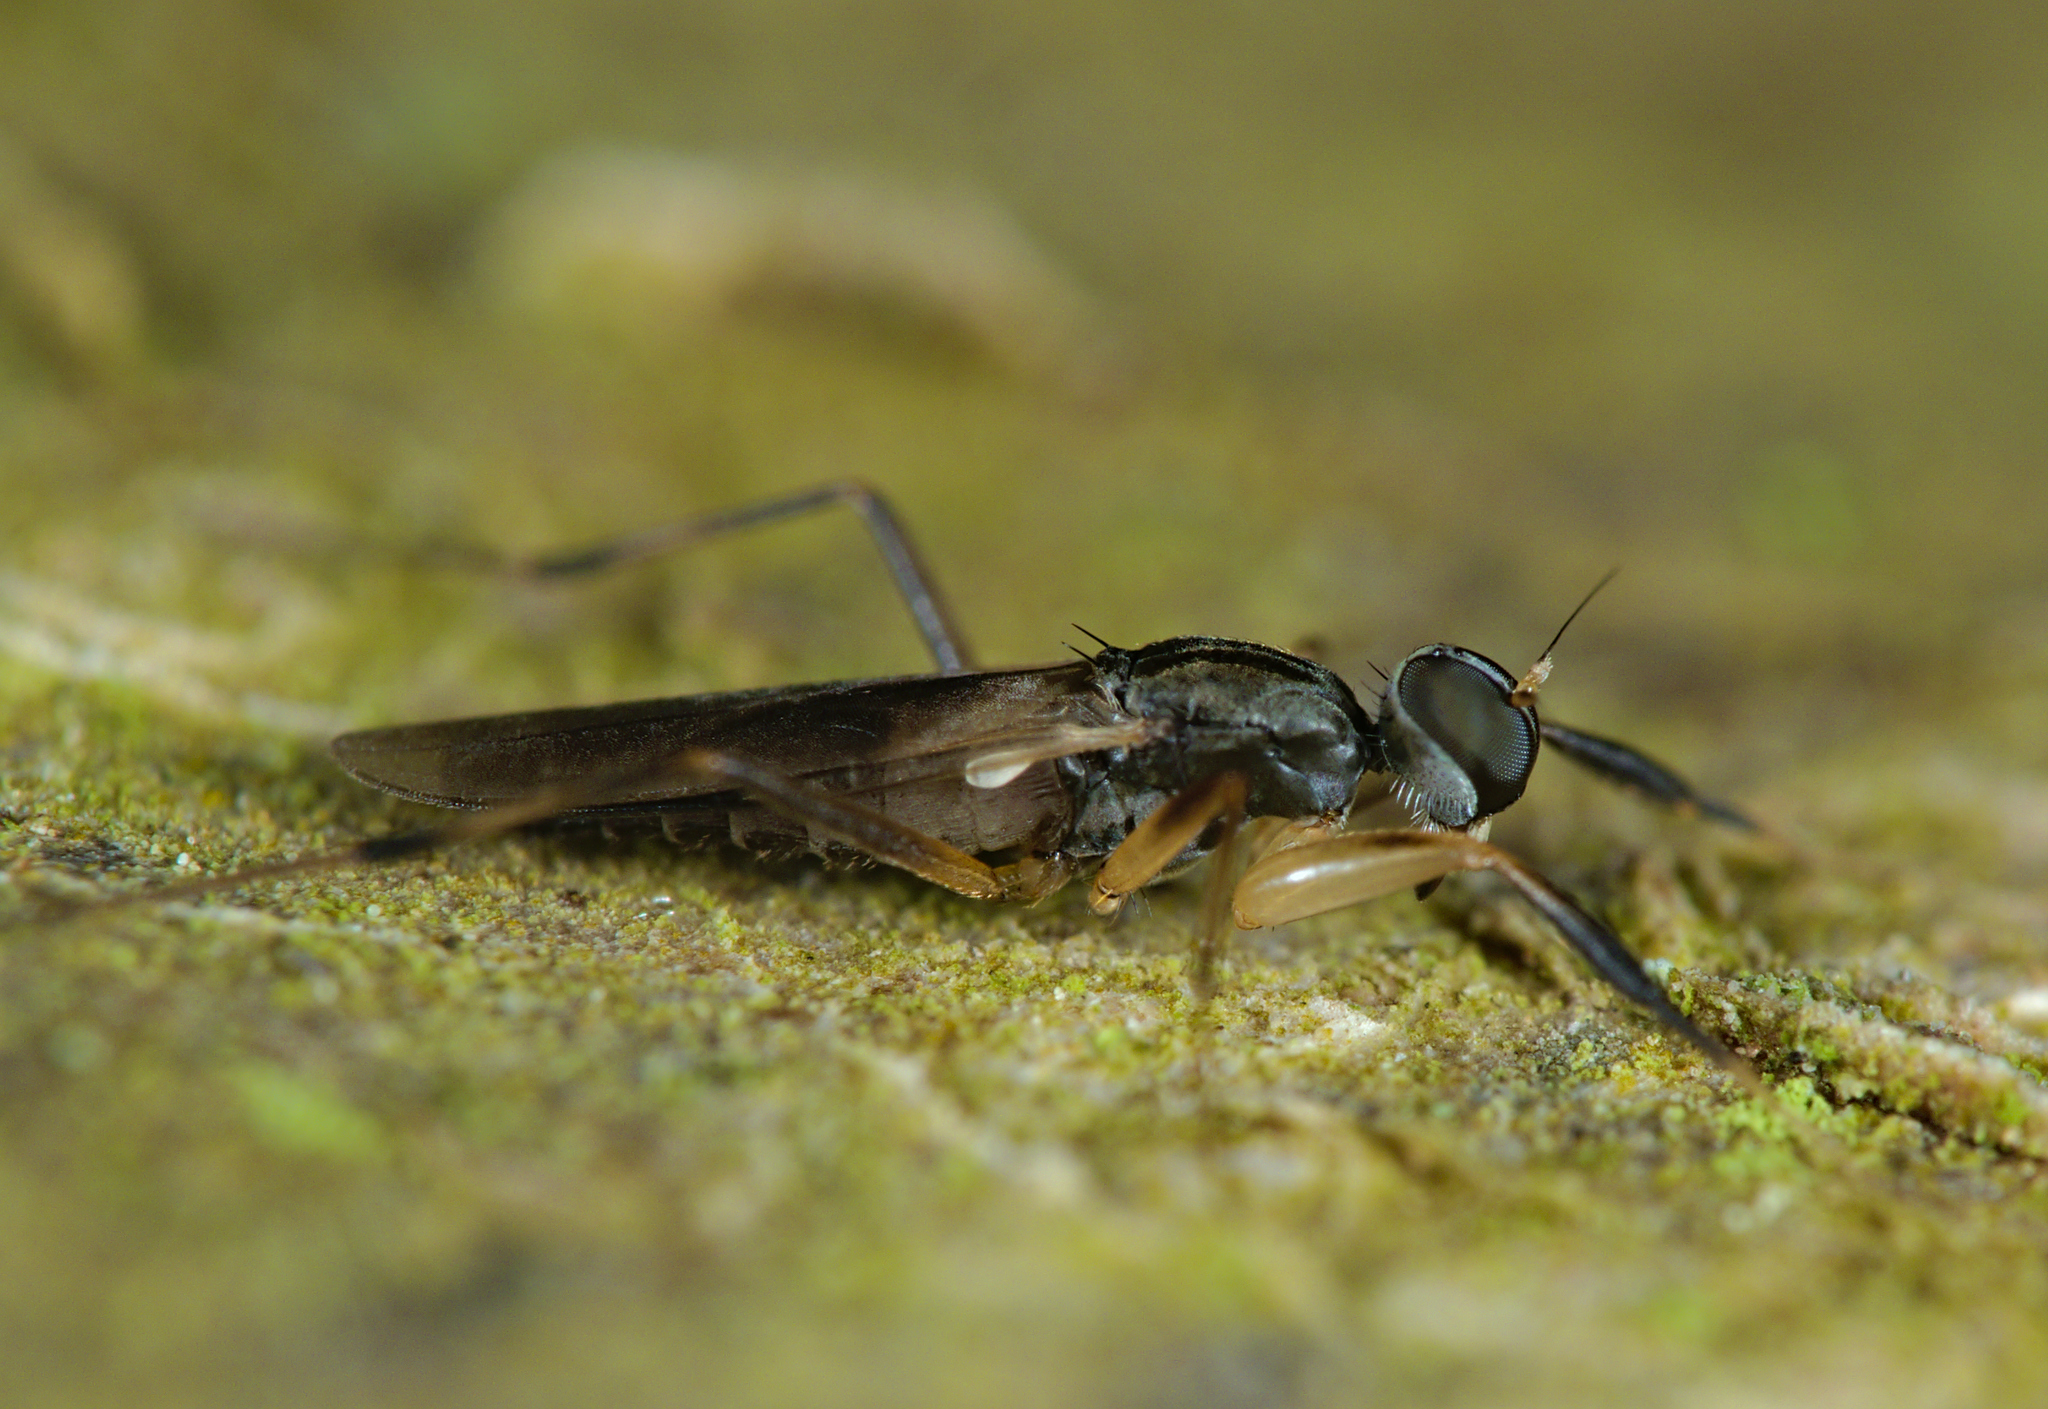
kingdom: Animalia
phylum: Arthropoda
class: Insecta
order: Diptera
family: Hybotidae
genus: Tachypeza
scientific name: Tachypeza nubila
